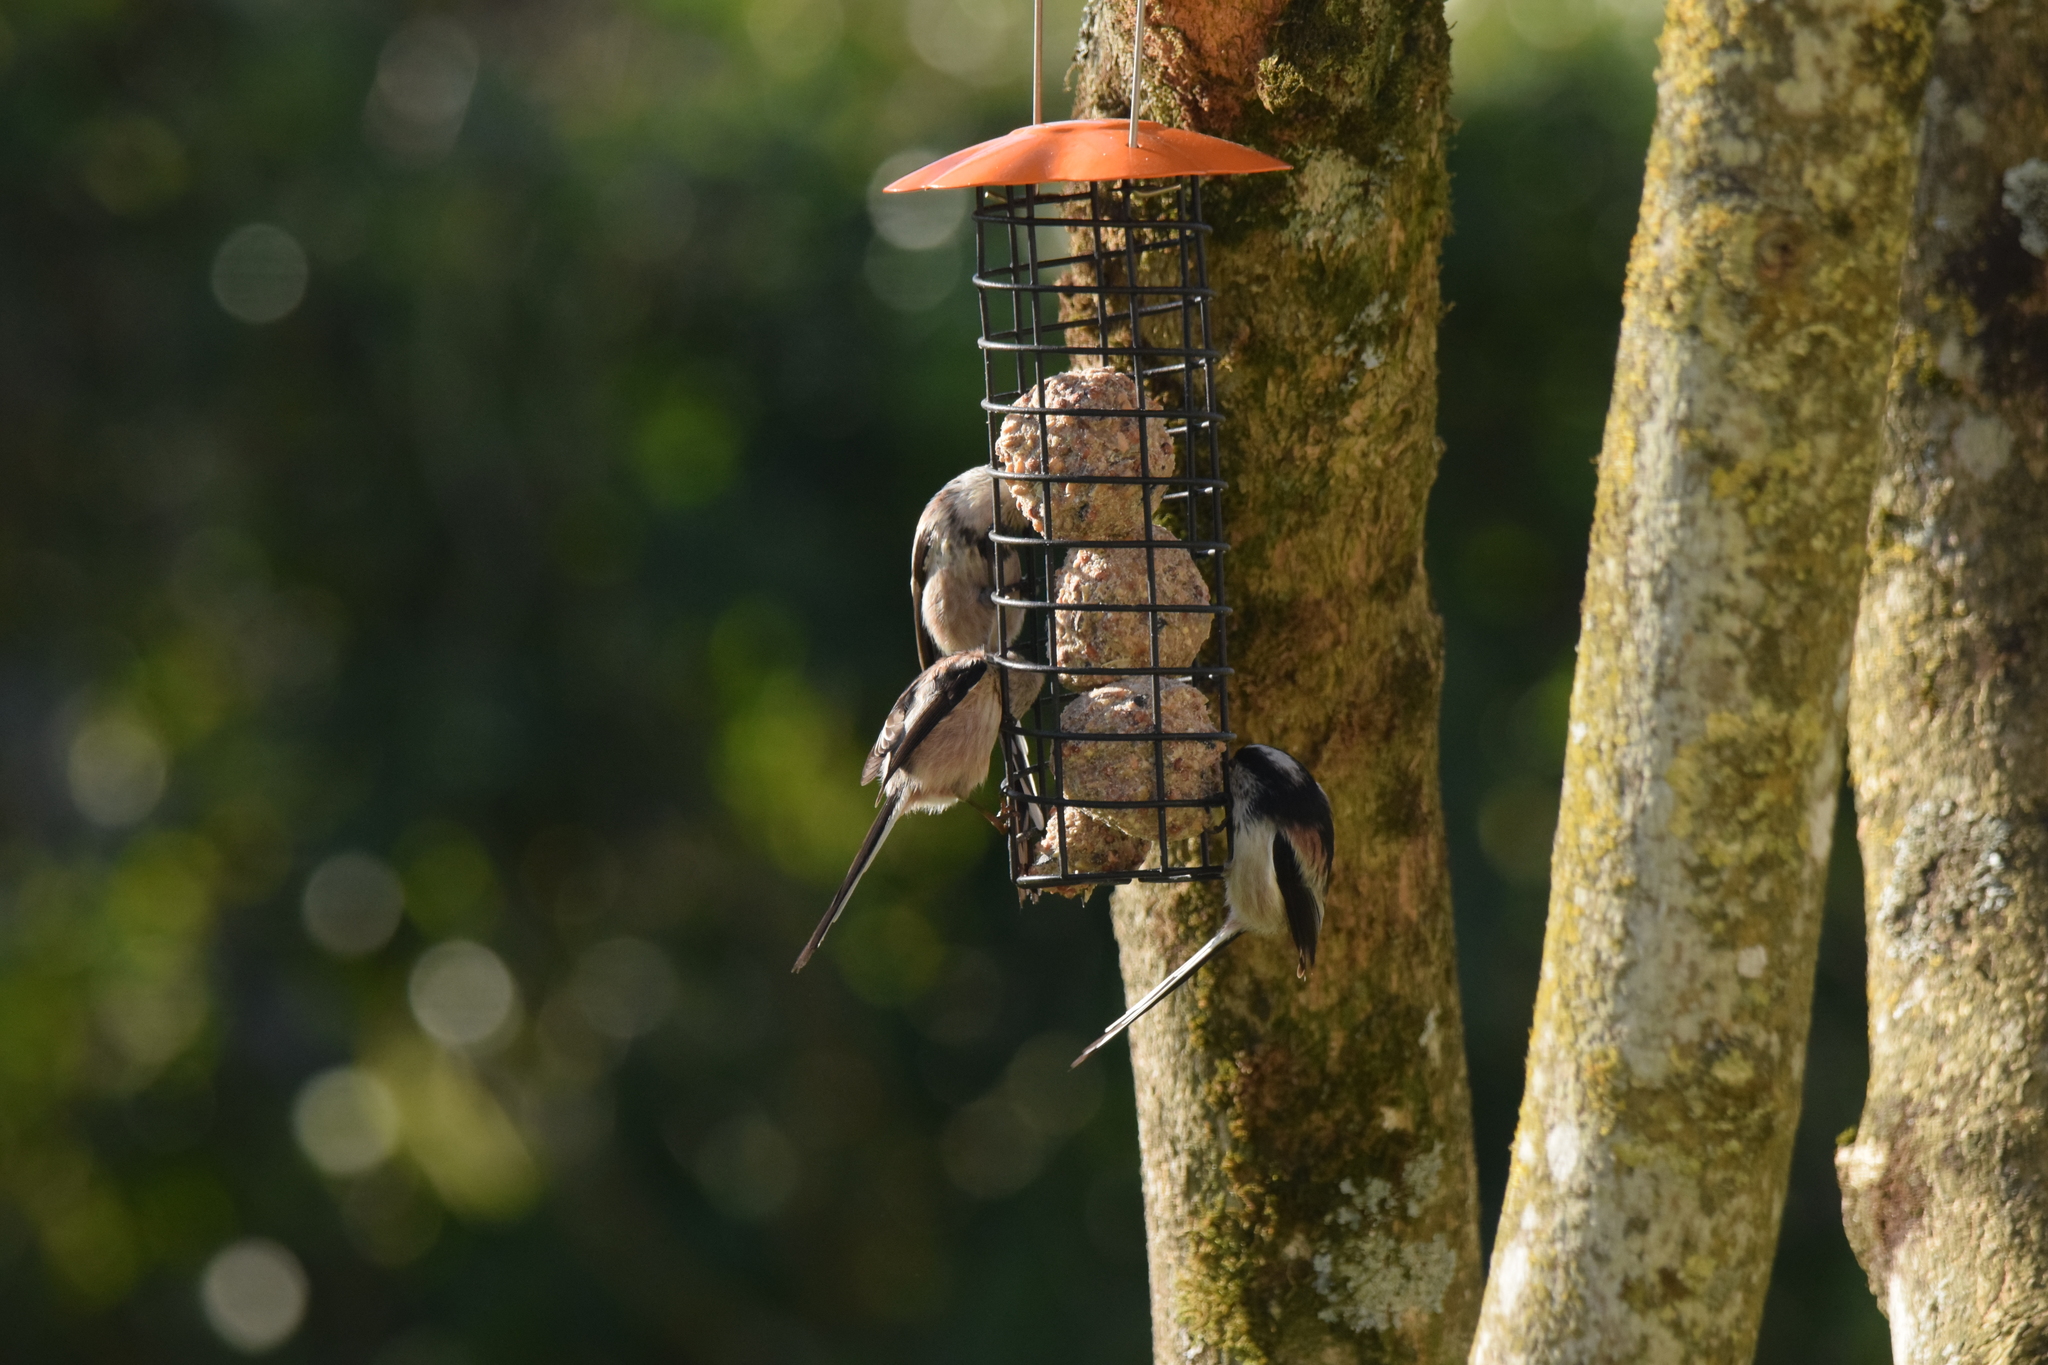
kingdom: Animalia
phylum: Chordata
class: Aves
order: Passeriformes
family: Aegithalidae
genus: Aegithalos
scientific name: Aegithalos caudatus
